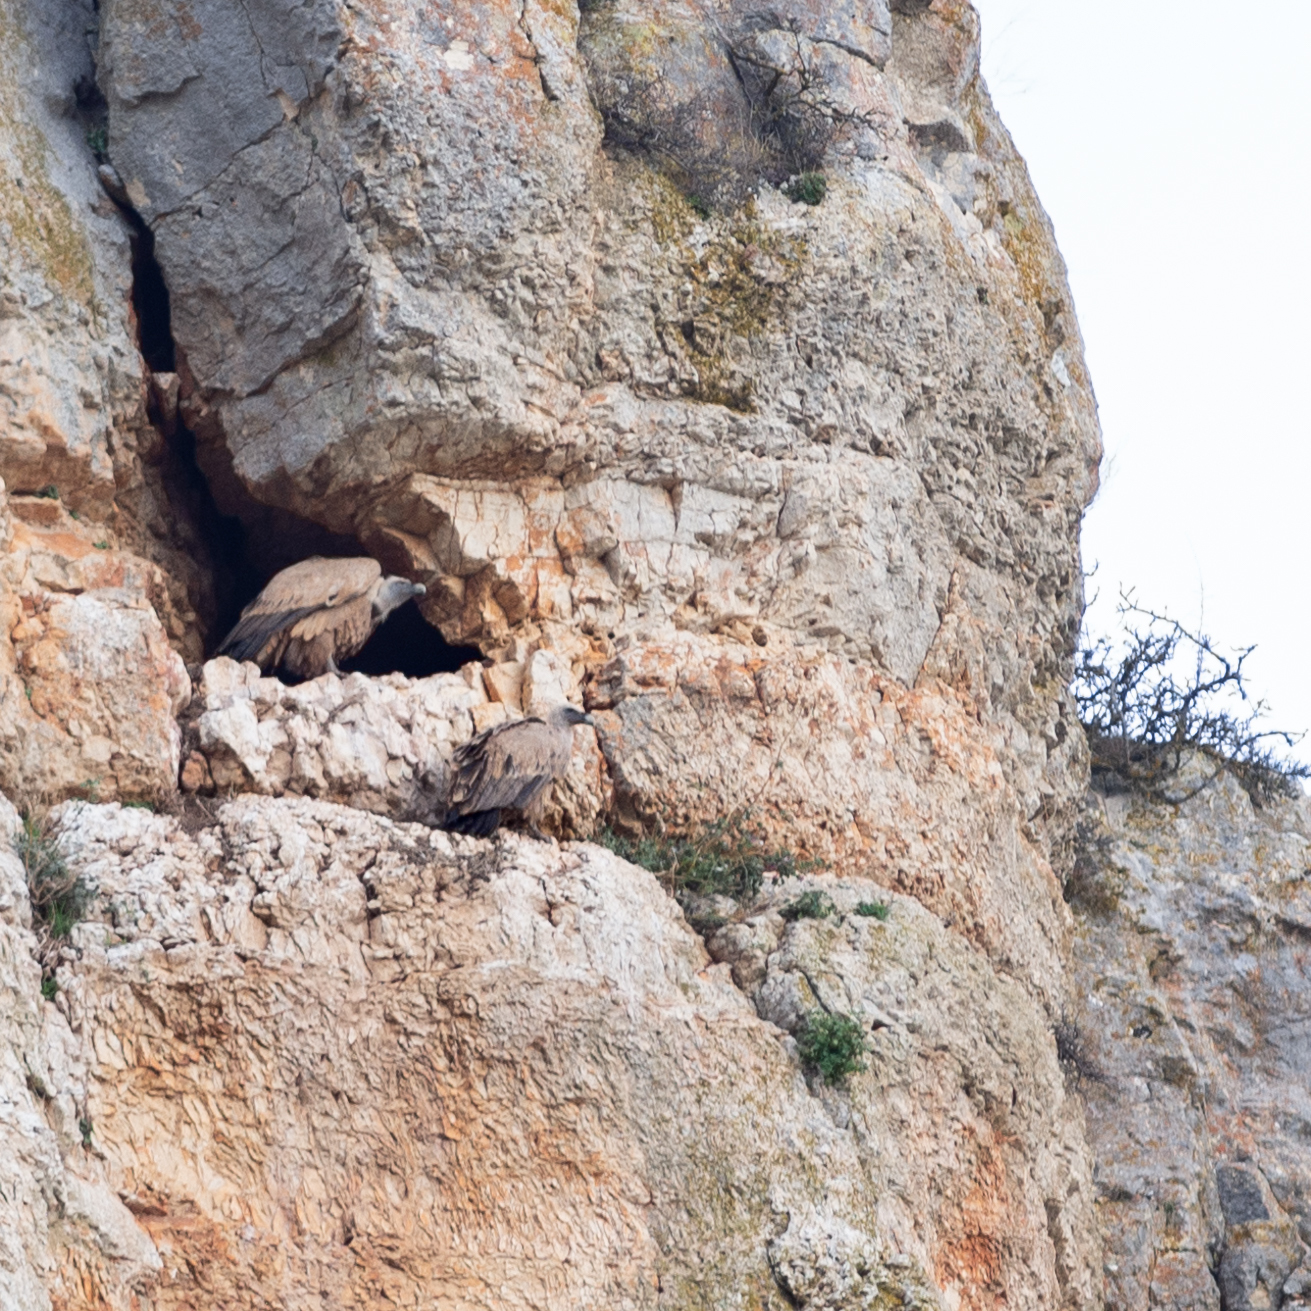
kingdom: Animalia
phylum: Chordata
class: Aves
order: Accipitriformes
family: Accipitridae
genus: Gyps
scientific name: Gyps fulvus
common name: Griffon vulture
